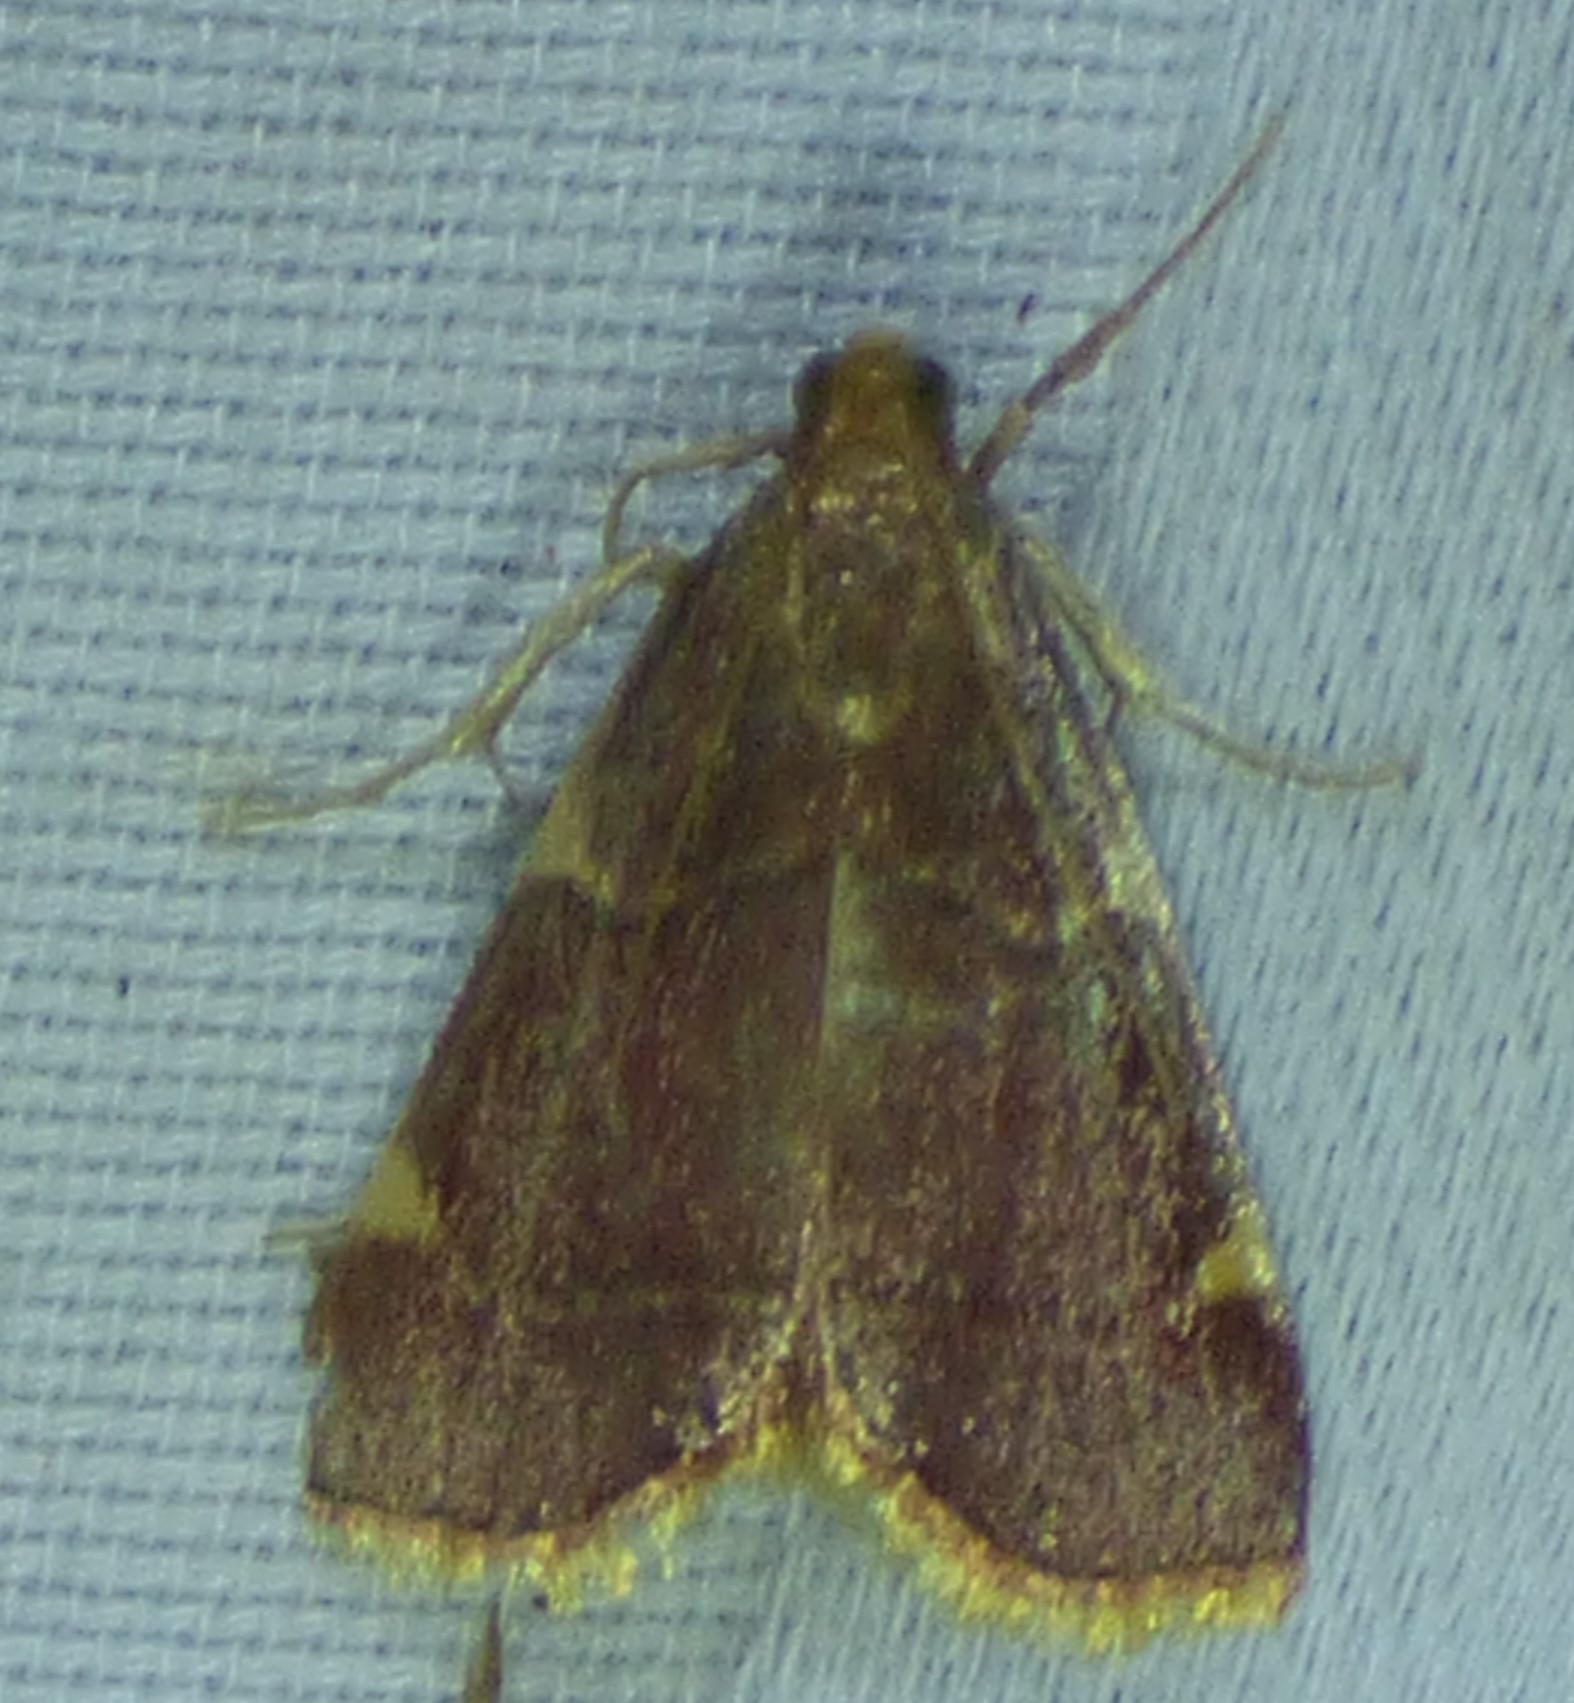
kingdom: Animalia
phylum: Arthropoda
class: Insecta
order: Lepidoptera
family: Pyralidae
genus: Hypsopygia
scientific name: Hypsopygia olinalis
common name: Yellow-fringed dolichomia moth
